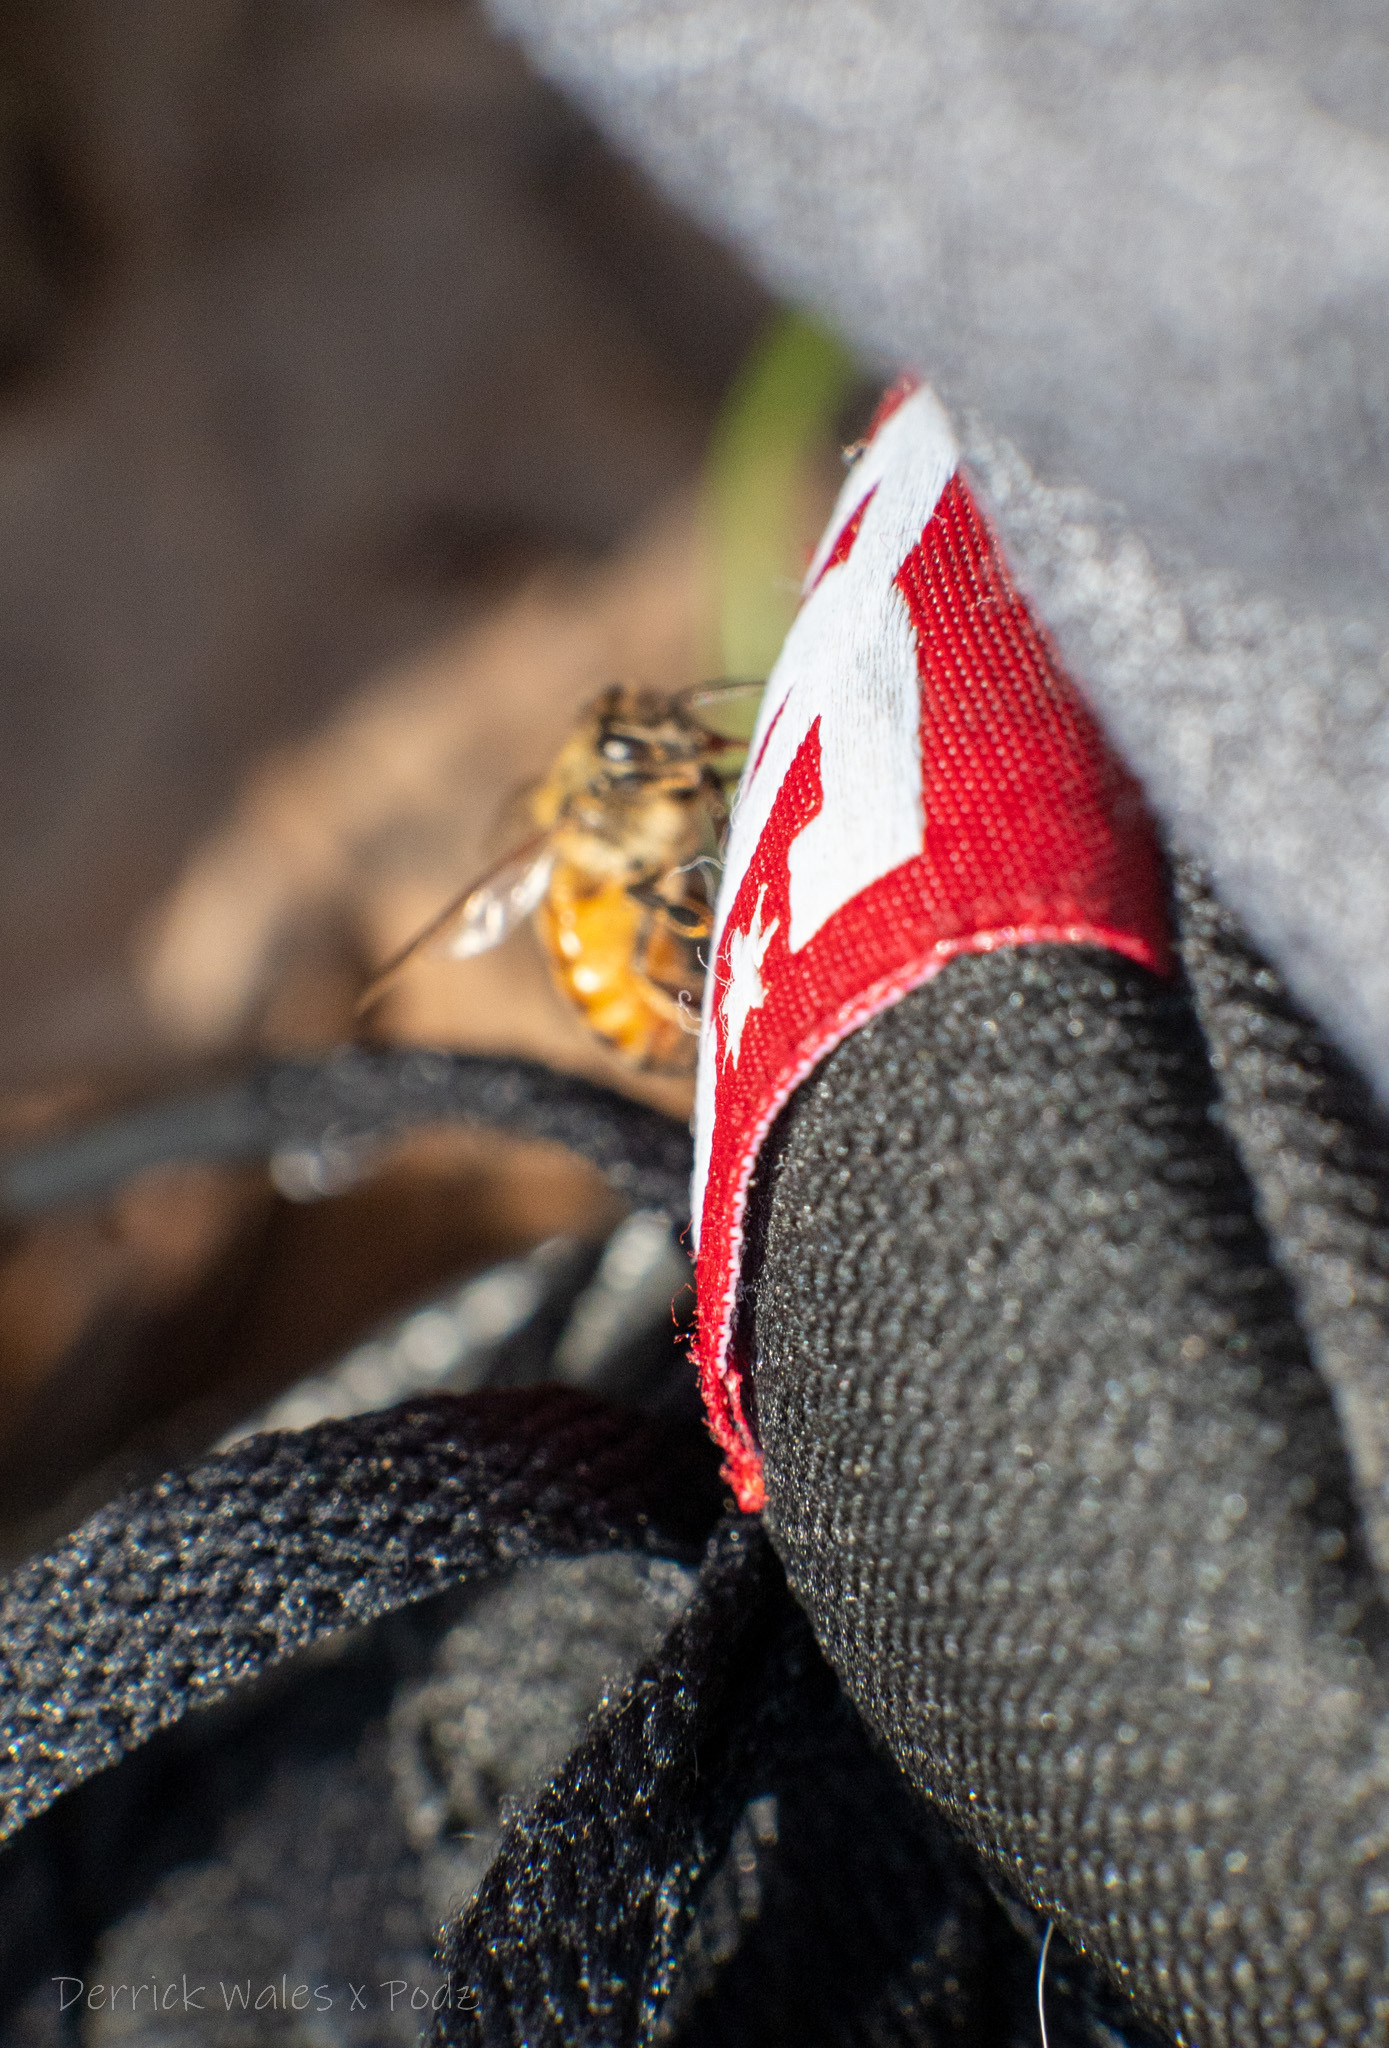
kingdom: Animalia
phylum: Arthropoda
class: Insecta
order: Hymenoptera
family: Apidae
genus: Apis
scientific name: Apis mellifera
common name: Honey bee
